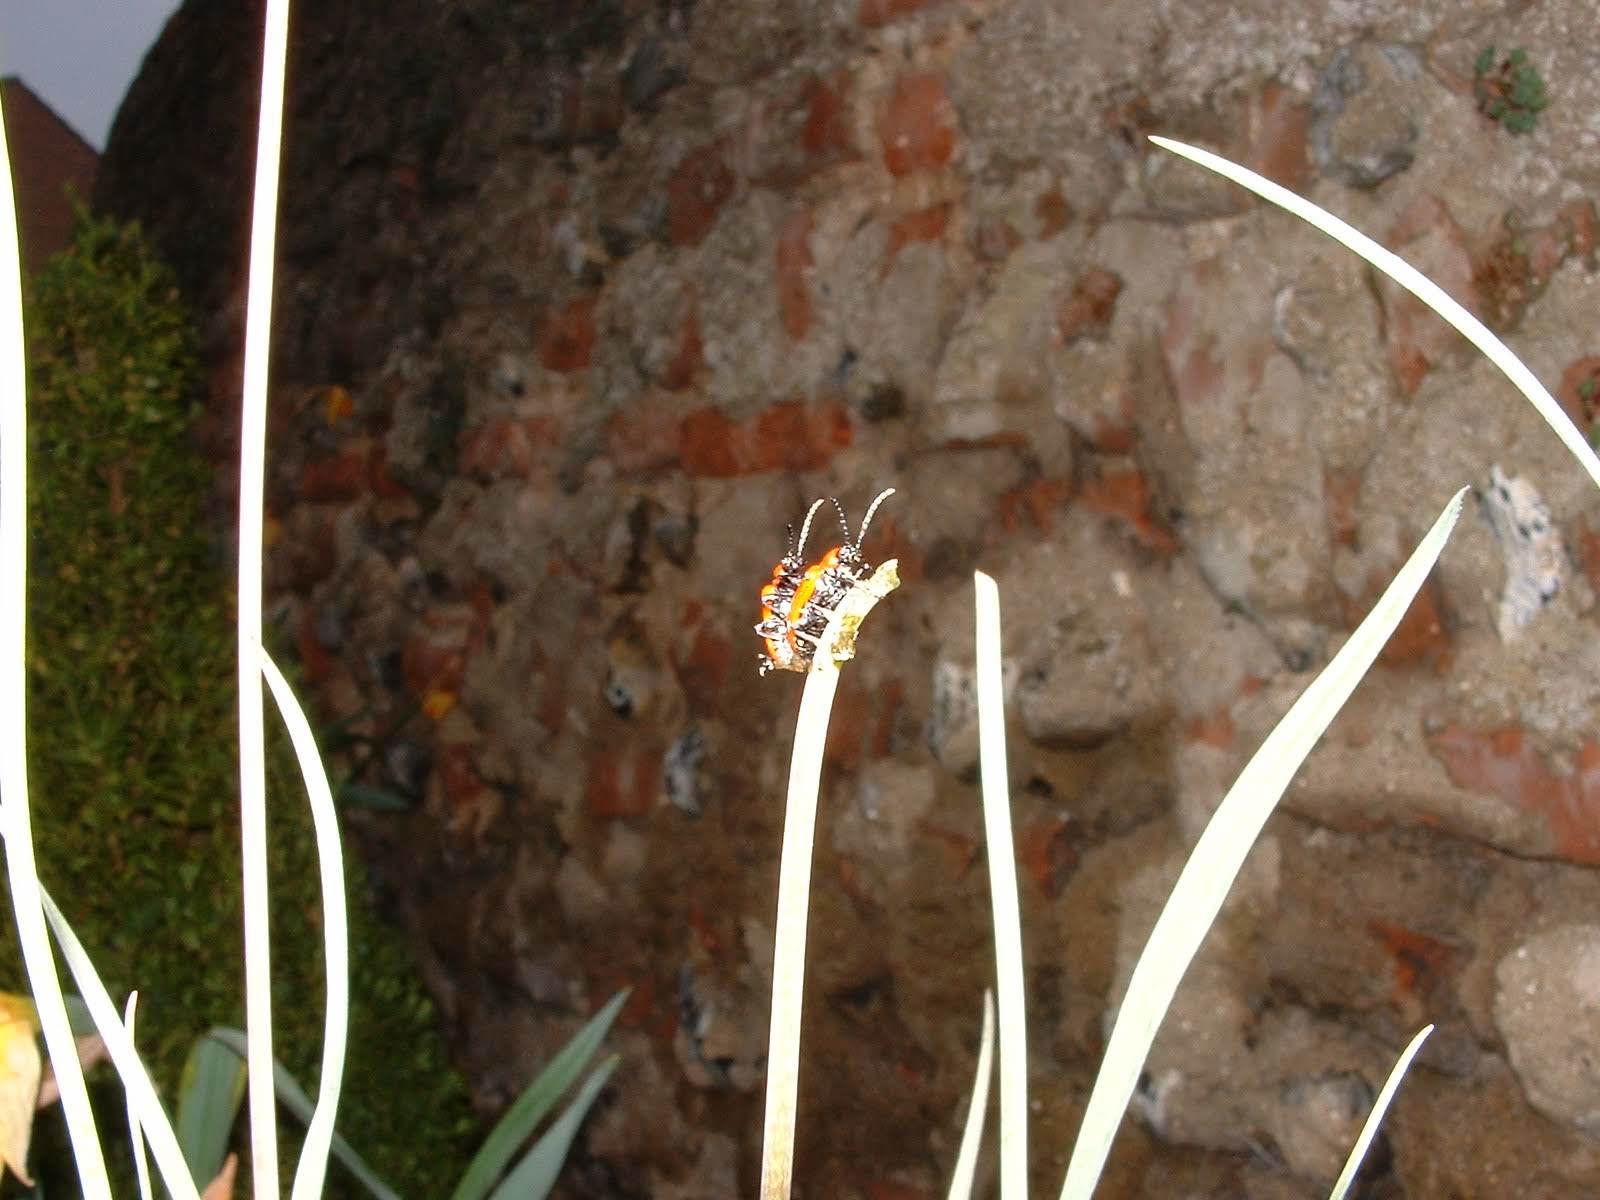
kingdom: Animalia
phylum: Arthropoda
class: Insecta
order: Coleoptera
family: Chrysomelidae
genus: Lilioceris
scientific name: Lilioceris lilii
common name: Lily beetle
